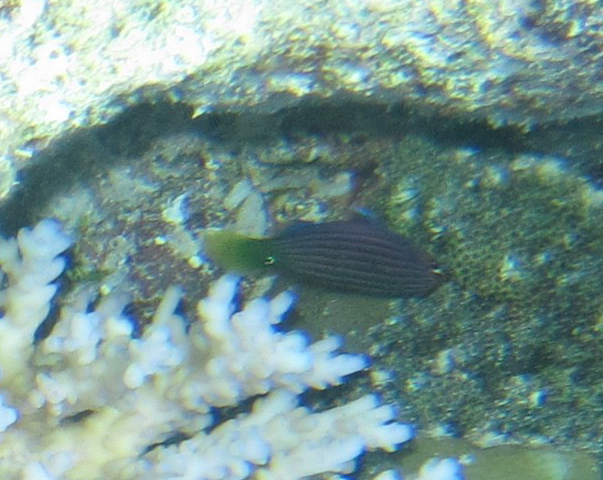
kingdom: Animalia
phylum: Chordata
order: Perciformes
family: Labridae
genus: Pseudocheilinus
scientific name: Pseudocheilinus hexataenia
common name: Sixline wrasse
